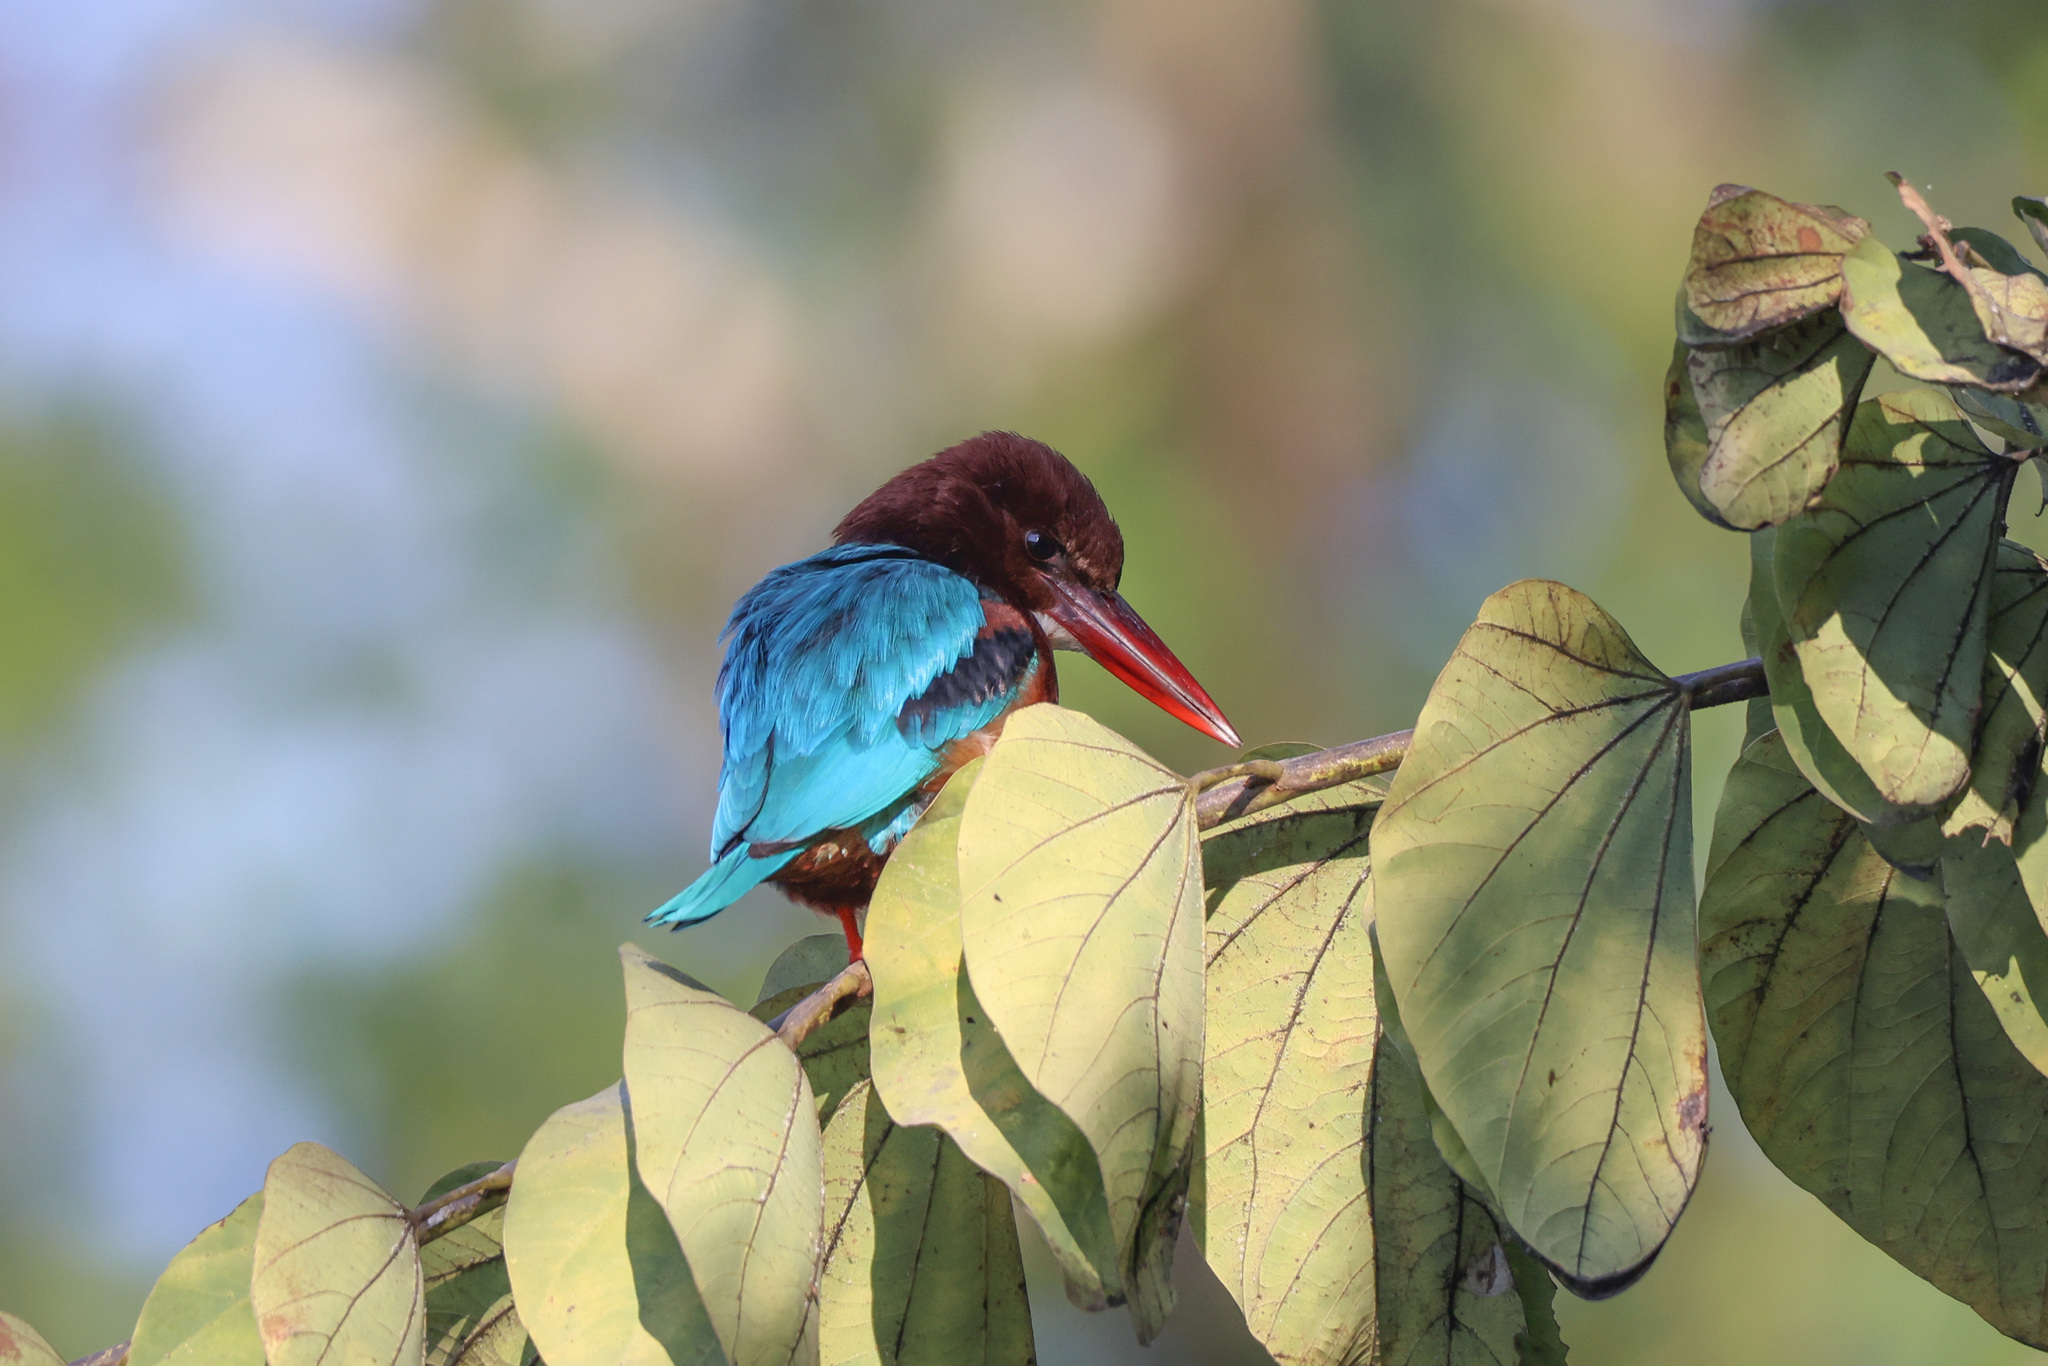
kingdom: Animalia
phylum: Chordata
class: Aves
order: Coraciiformes
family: Alcedinidae
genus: Halcyon
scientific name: Halcyon smyrnensis
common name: White-throated kingfisher
